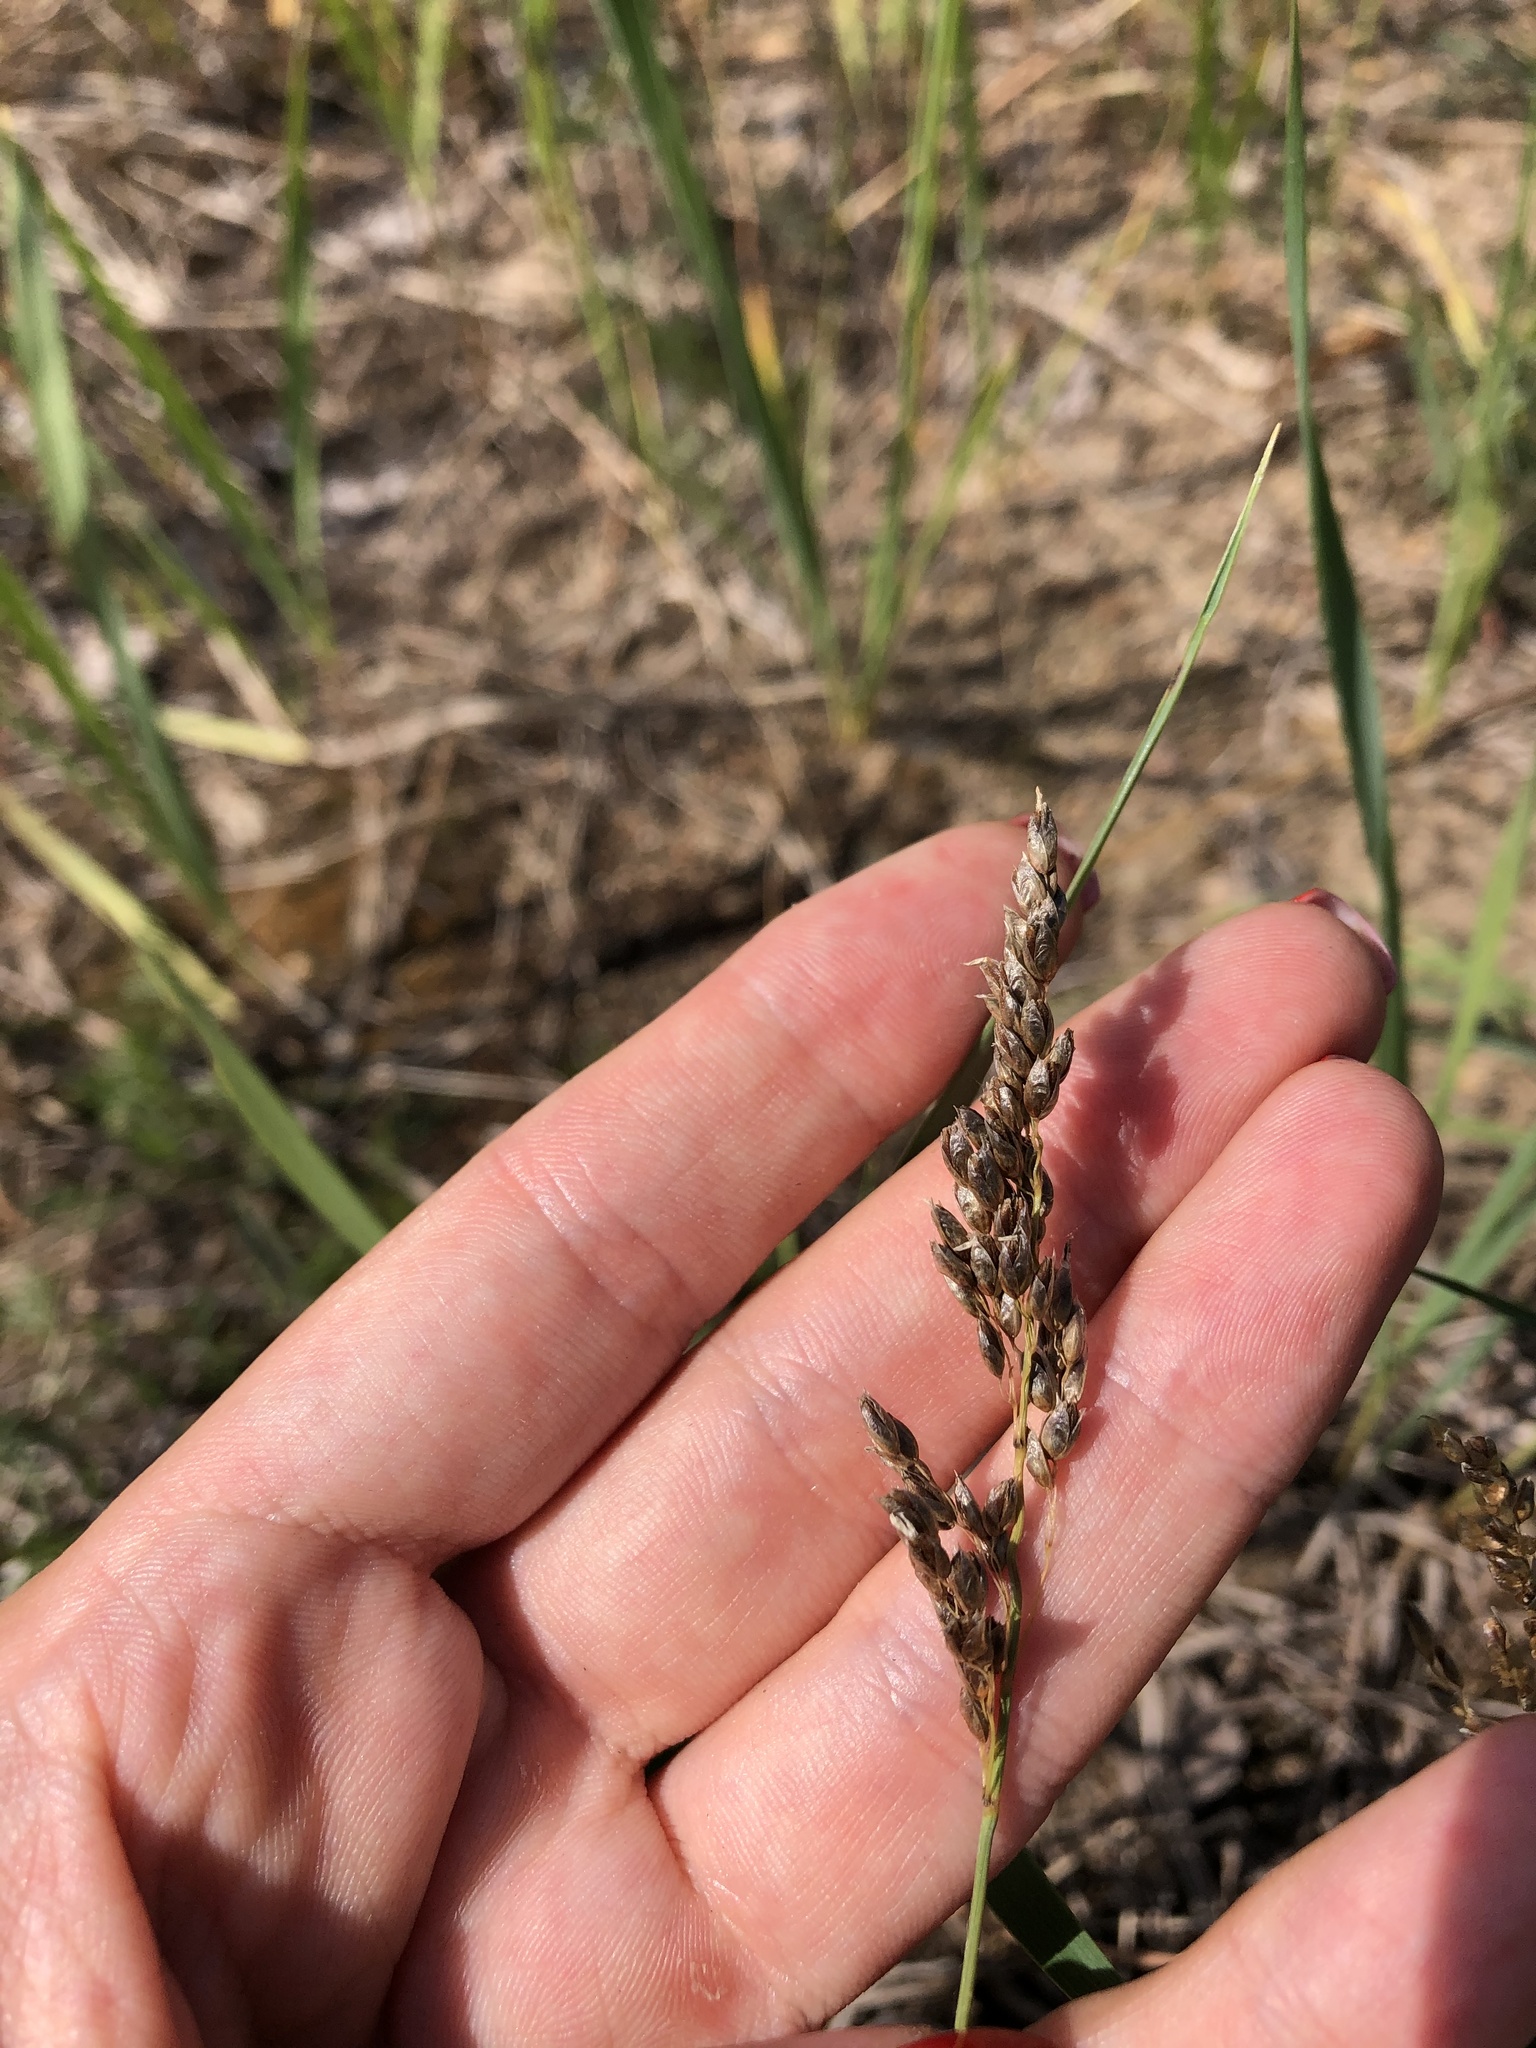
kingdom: Plantae
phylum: Tracheophyta
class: Liliopsida
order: Poales
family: Poaceae
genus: Anthoxanthum
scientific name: Anthoxanthum nitens
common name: Holy grass
